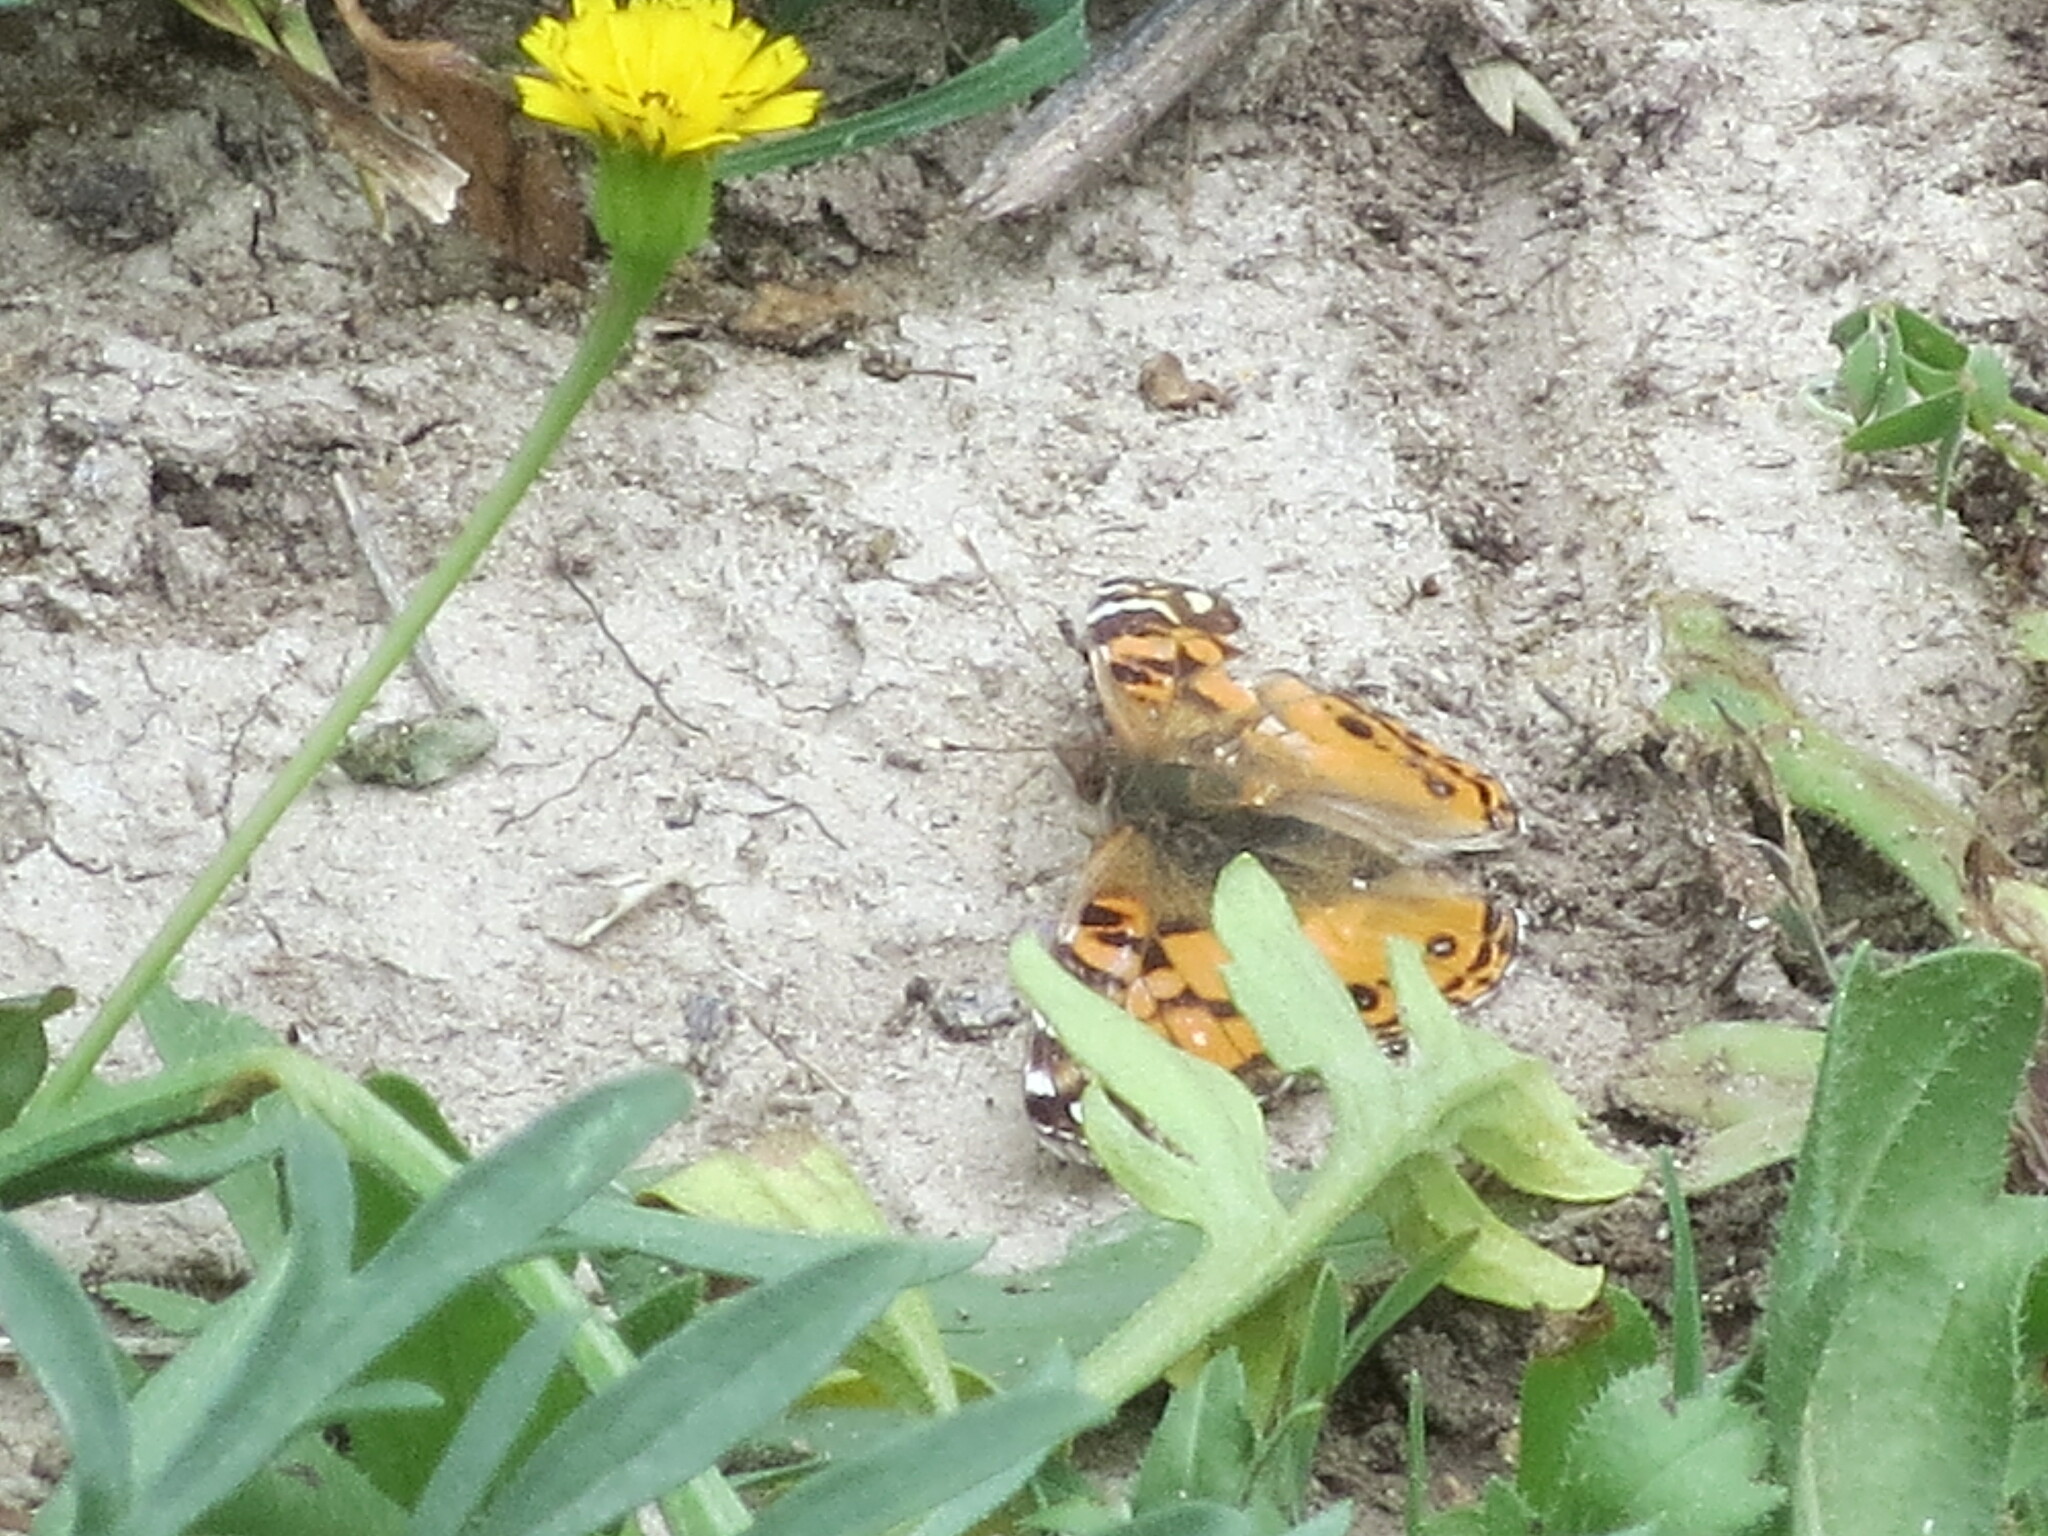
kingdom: Animalia
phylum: Arthropoda
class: Insecta
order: Lepidoptera
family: Nymphalidae
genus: Vanessa
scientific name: Vanessa virginiensis
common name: American lady
